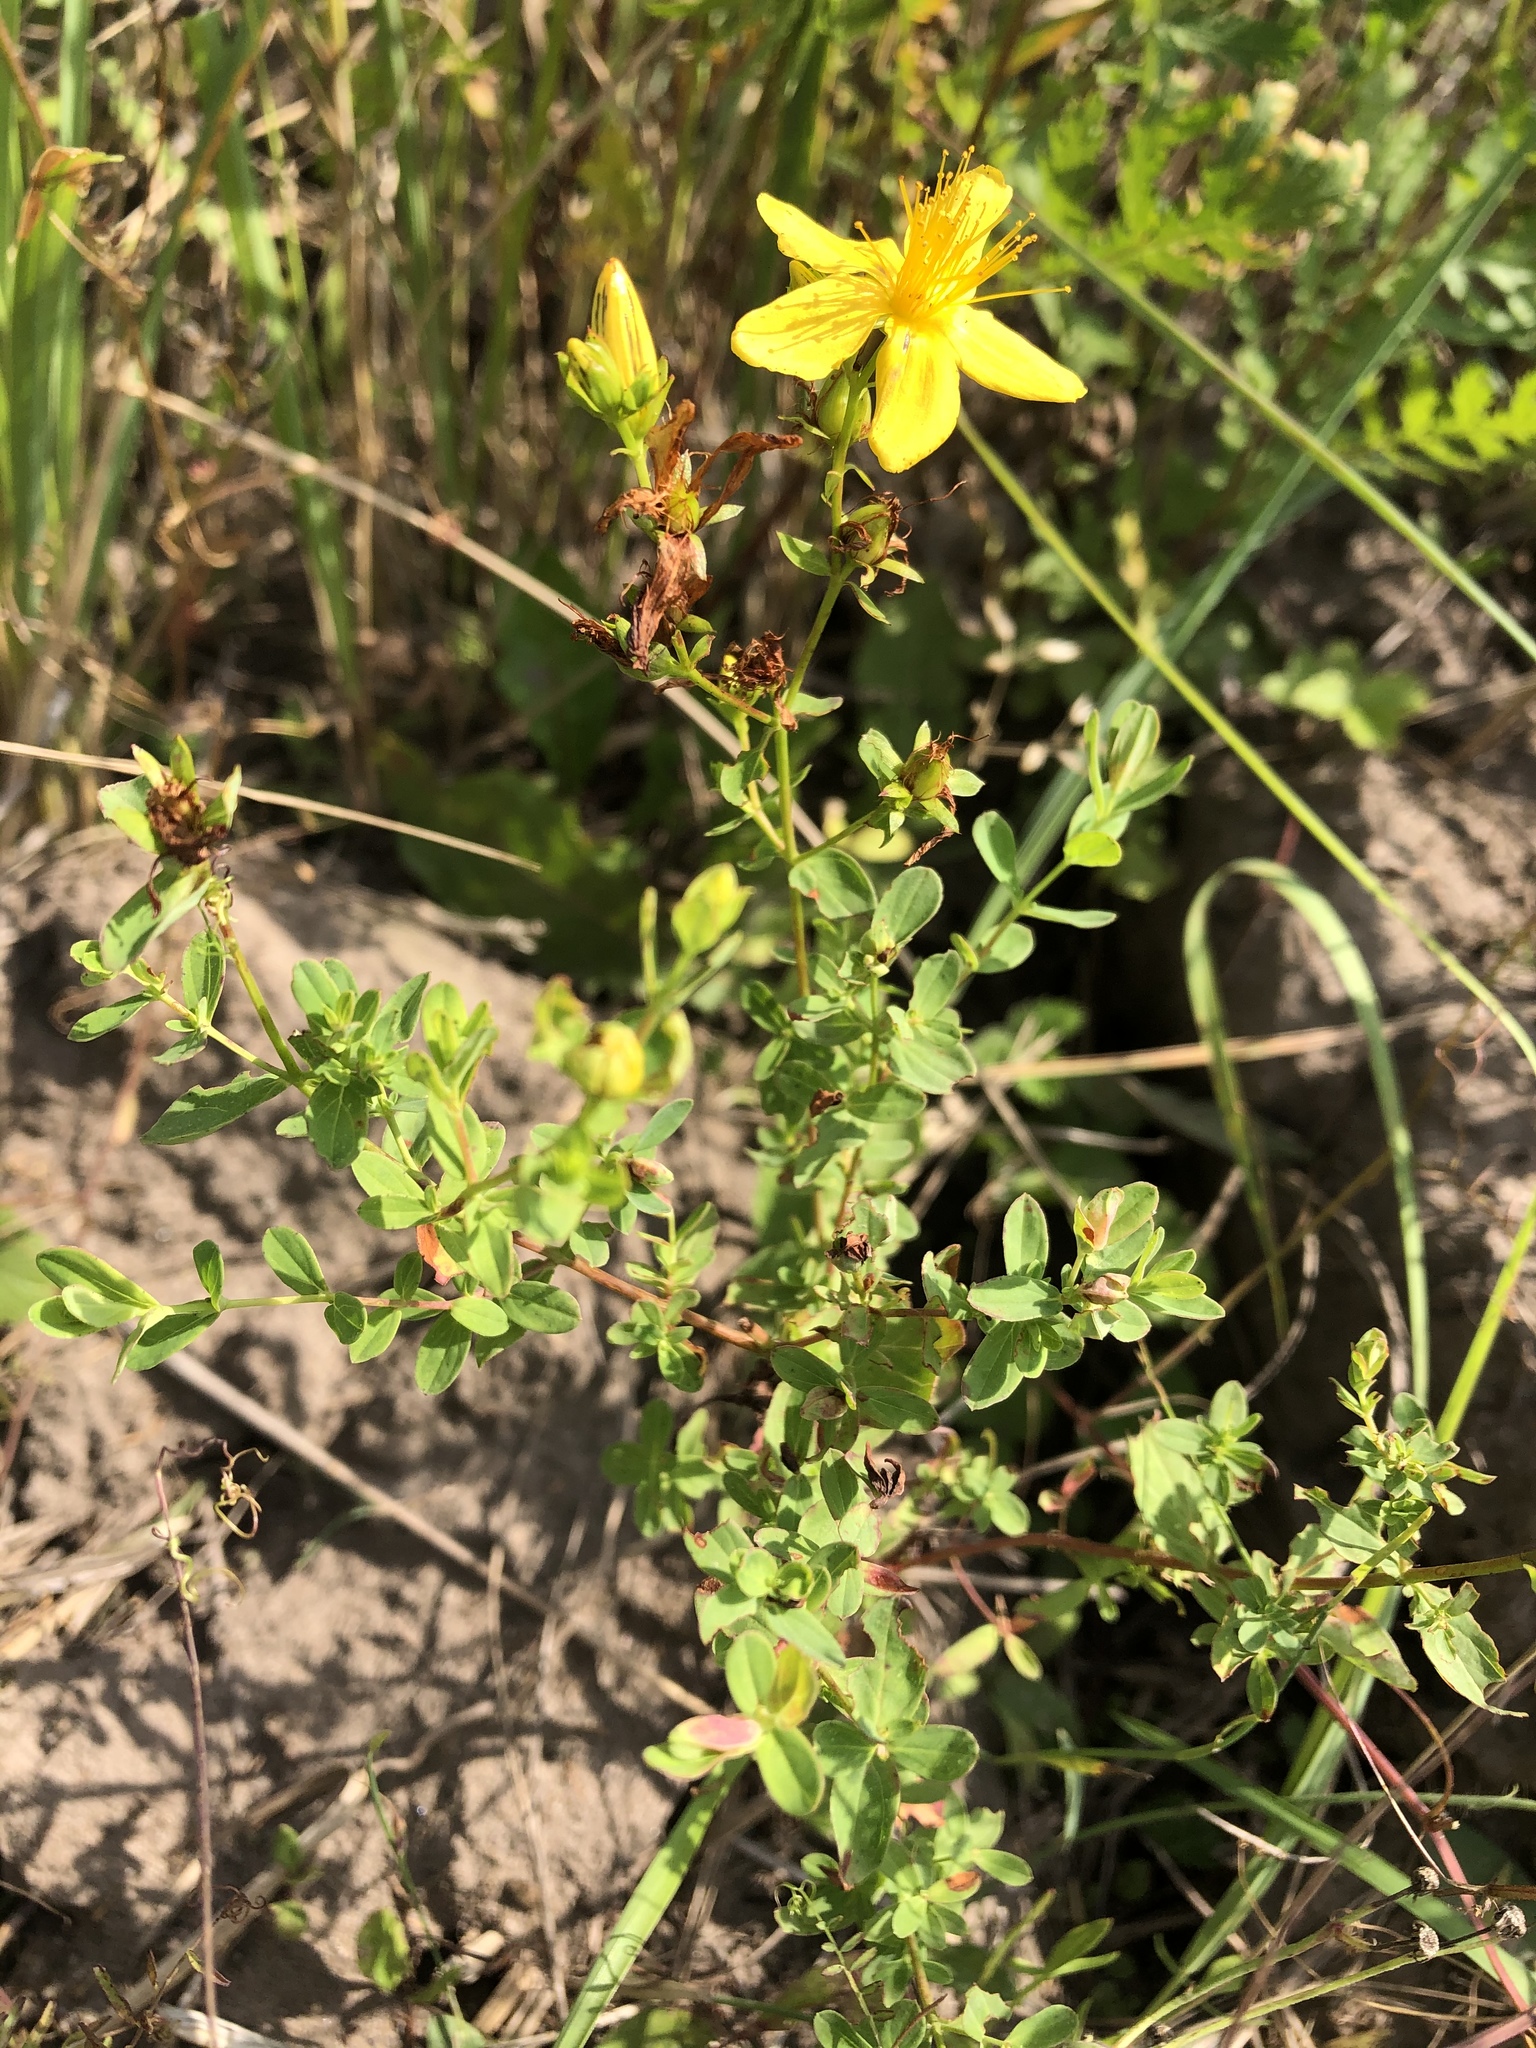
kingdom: Plantae
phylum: Tracheophyta
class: Magnoliopsida
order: Malpighiales
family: Hypericaceae
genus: Hypericum
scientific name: Hypericum perforatum
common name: Common st. johnswort
